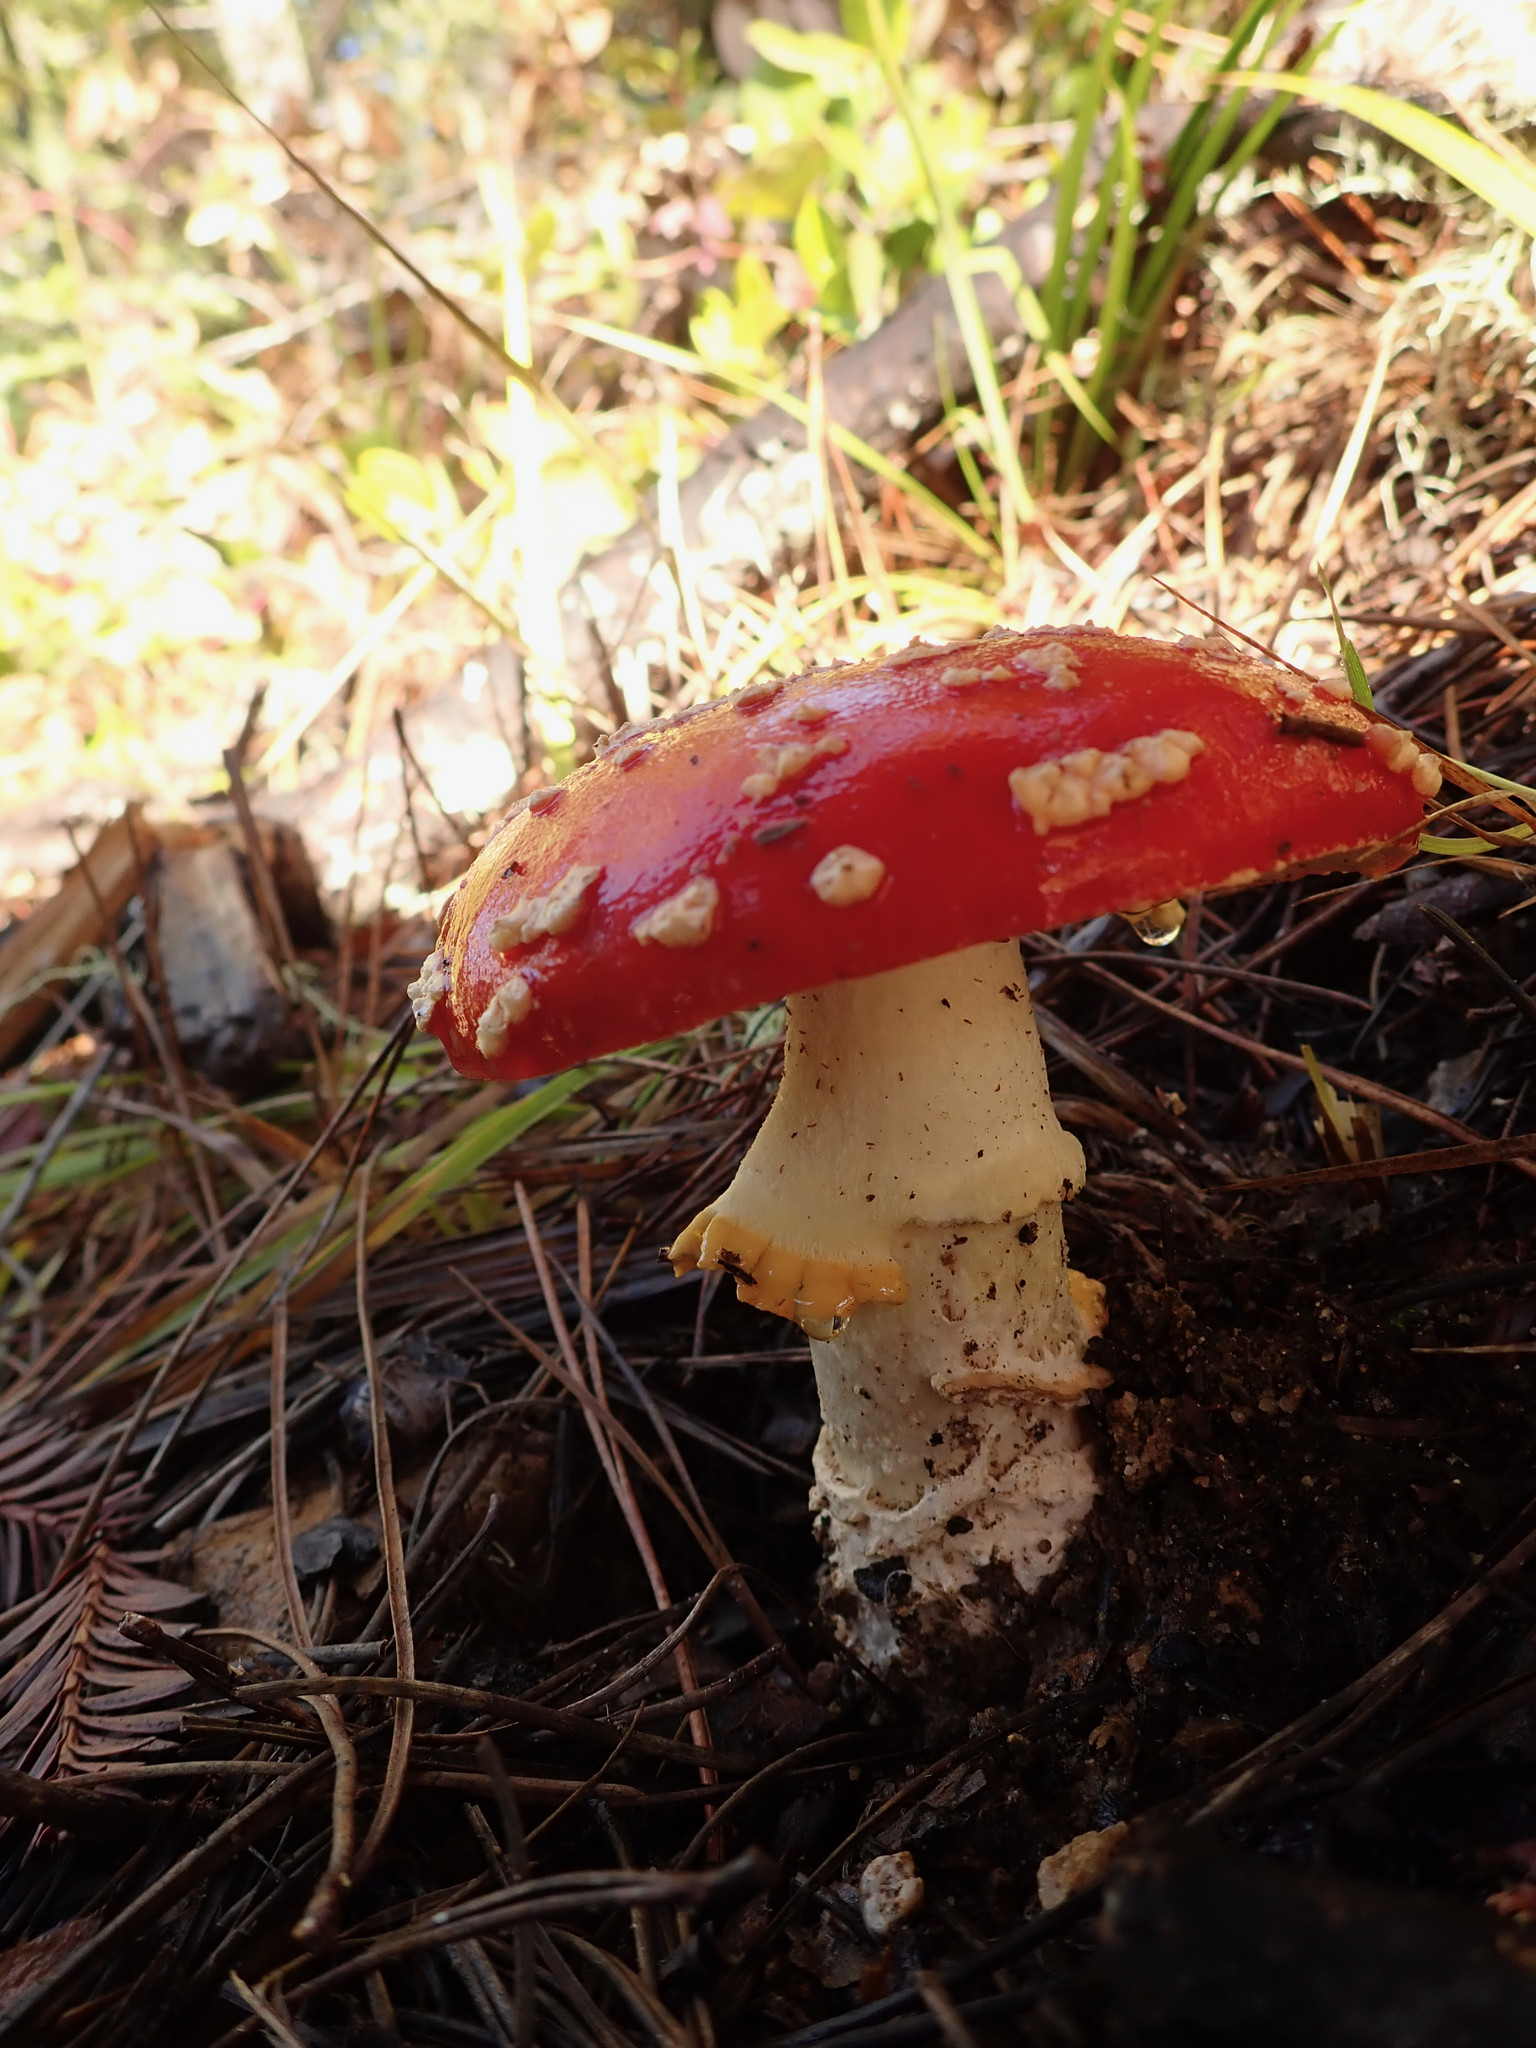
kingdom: Fungi
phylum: Basidiomycota
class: Agaricomycetes
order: Agaricales
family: Amanitaceae
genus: Amanita
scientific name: Amanita muscaria
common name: Fly agaric
